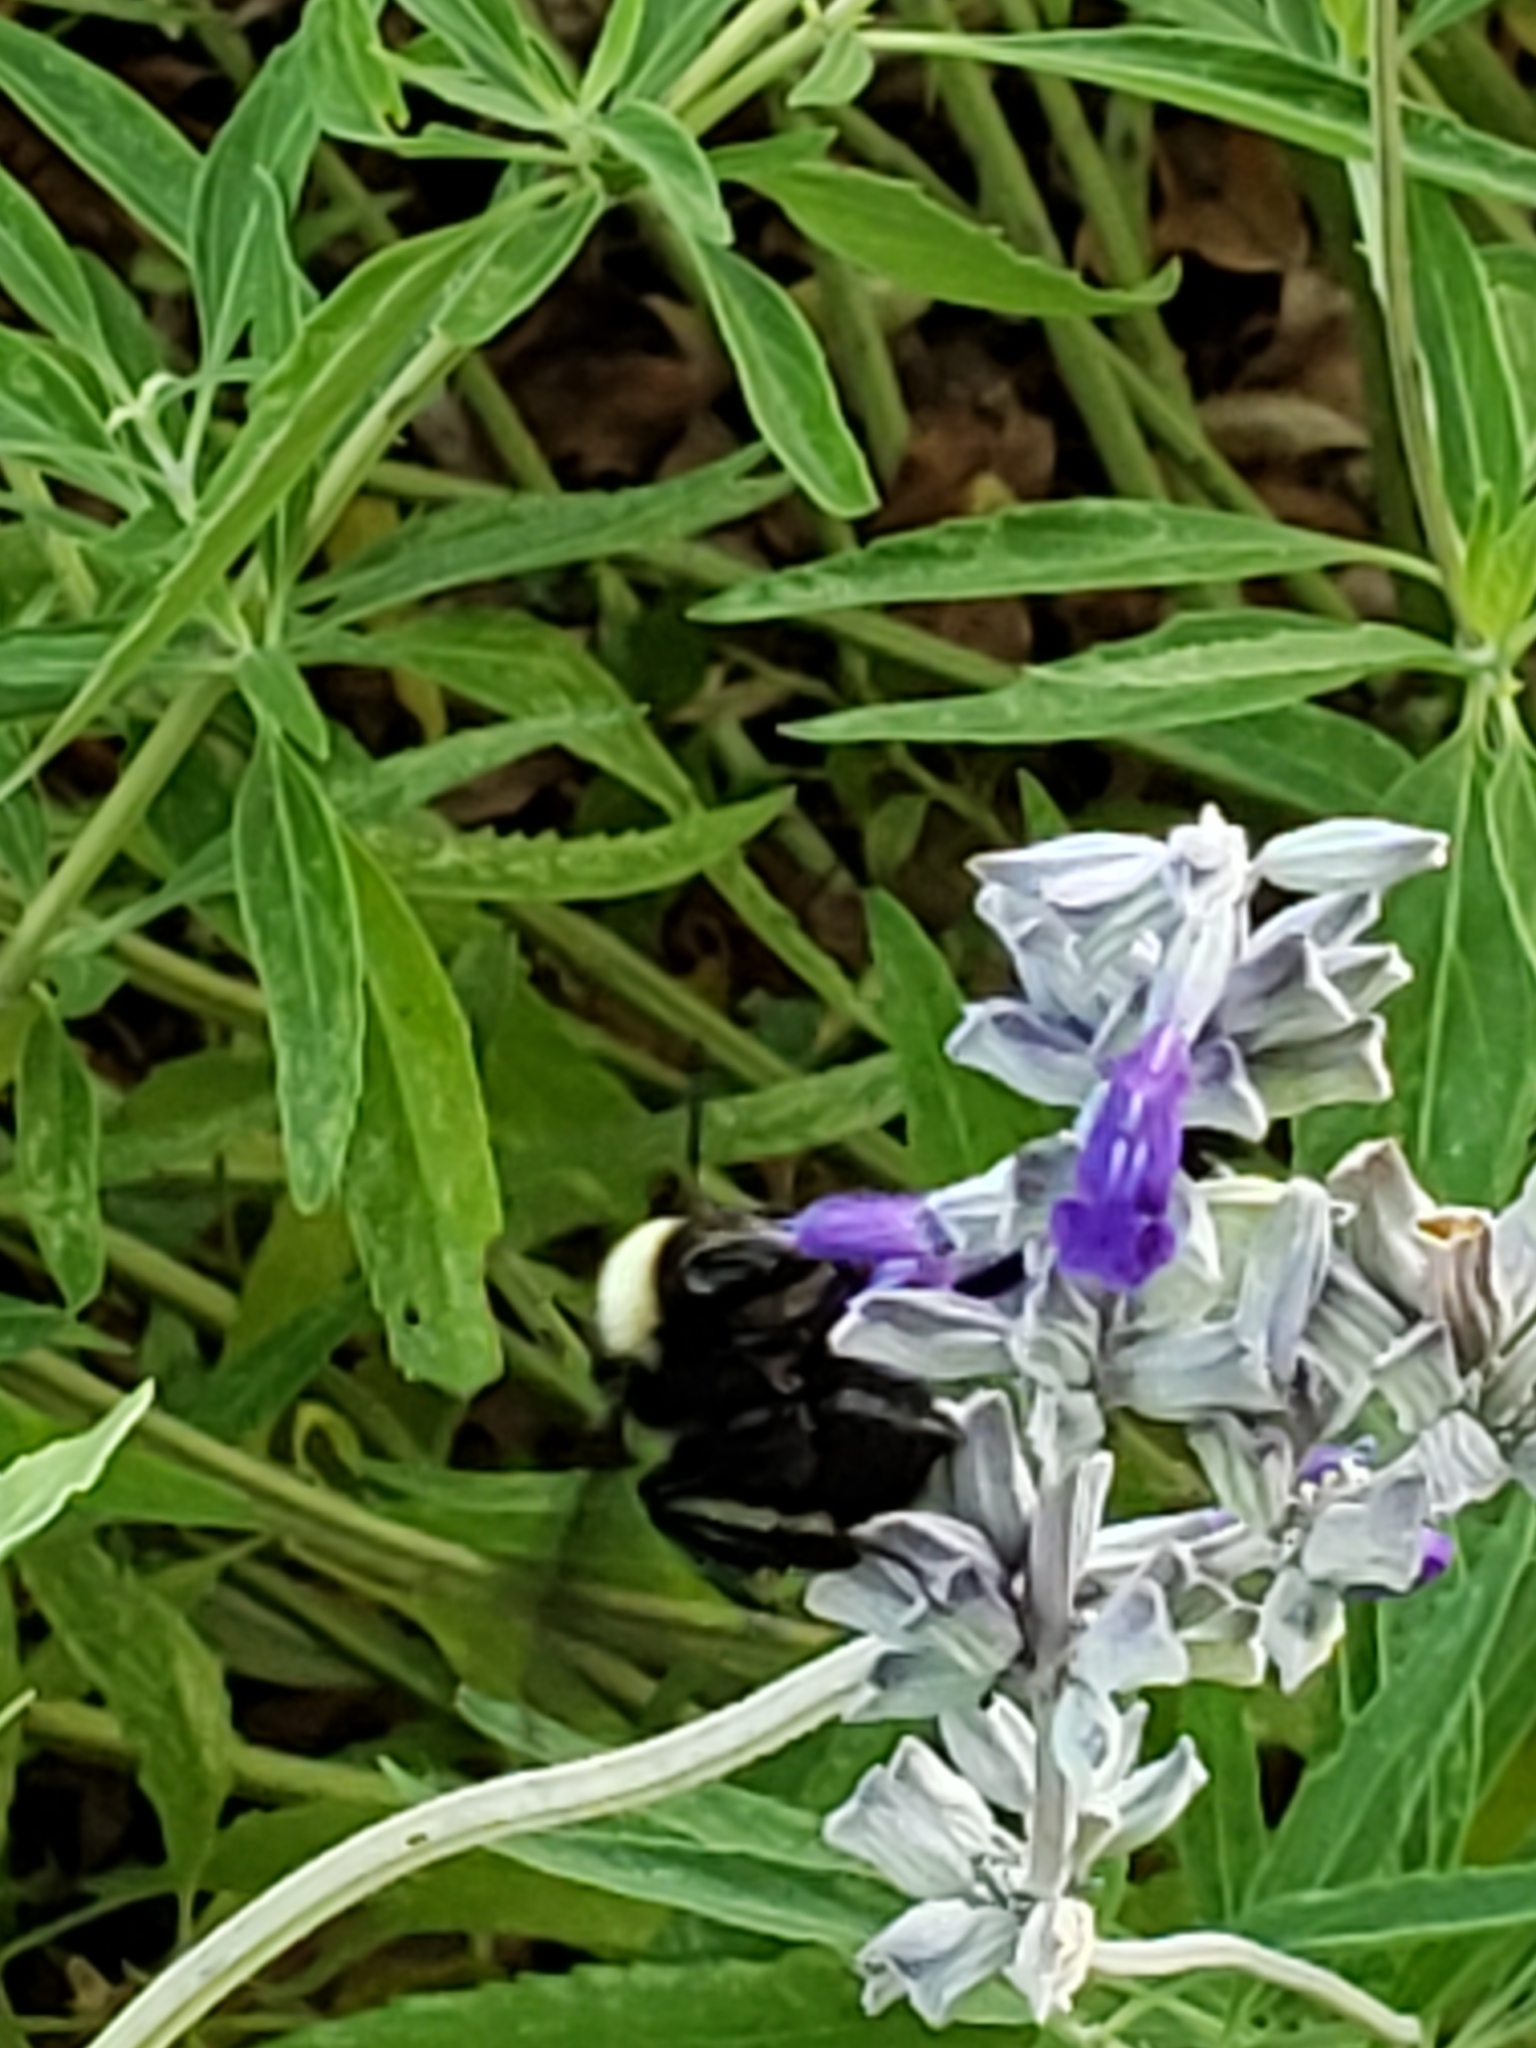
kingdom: Animalia
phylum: Arthropoda
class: Insecta
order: Hymenoptera
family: Apidae
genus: Bombus
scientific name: Bombus pensylvanicus
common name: Bumble bee
